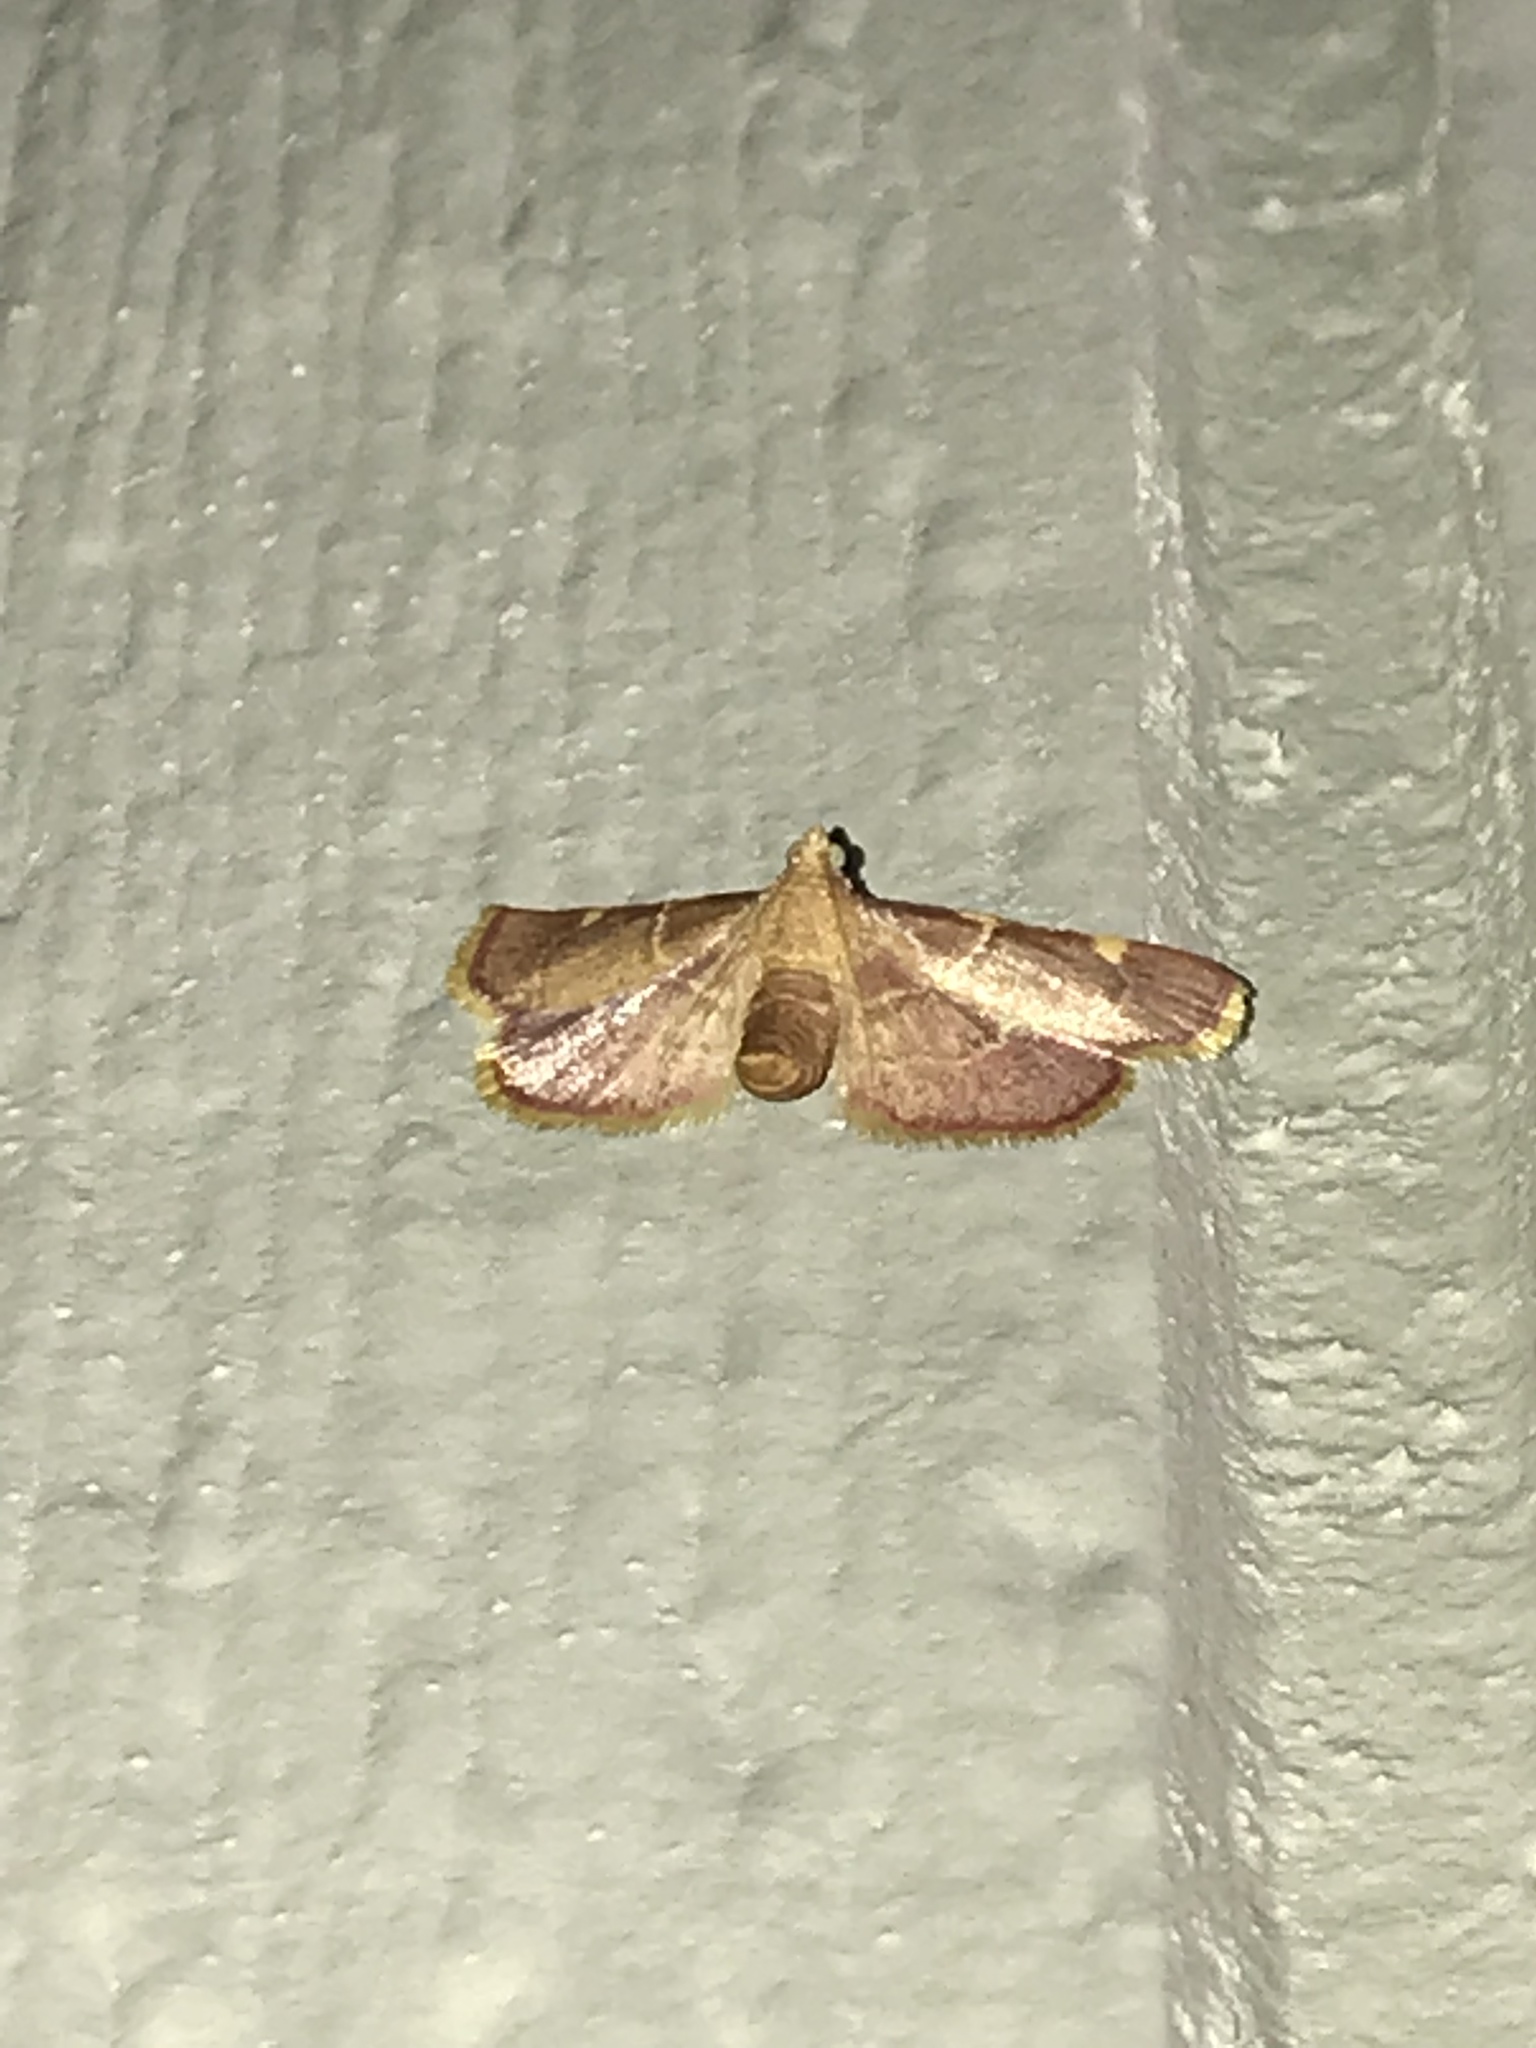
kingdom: Animalia
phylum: Arthropoda
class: Insecta
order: Lepidoptera
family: Pyralidae
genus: Hypsopygia
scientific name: Hypsopygia olinalis
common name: Yellow-fringed dolichomia moth
